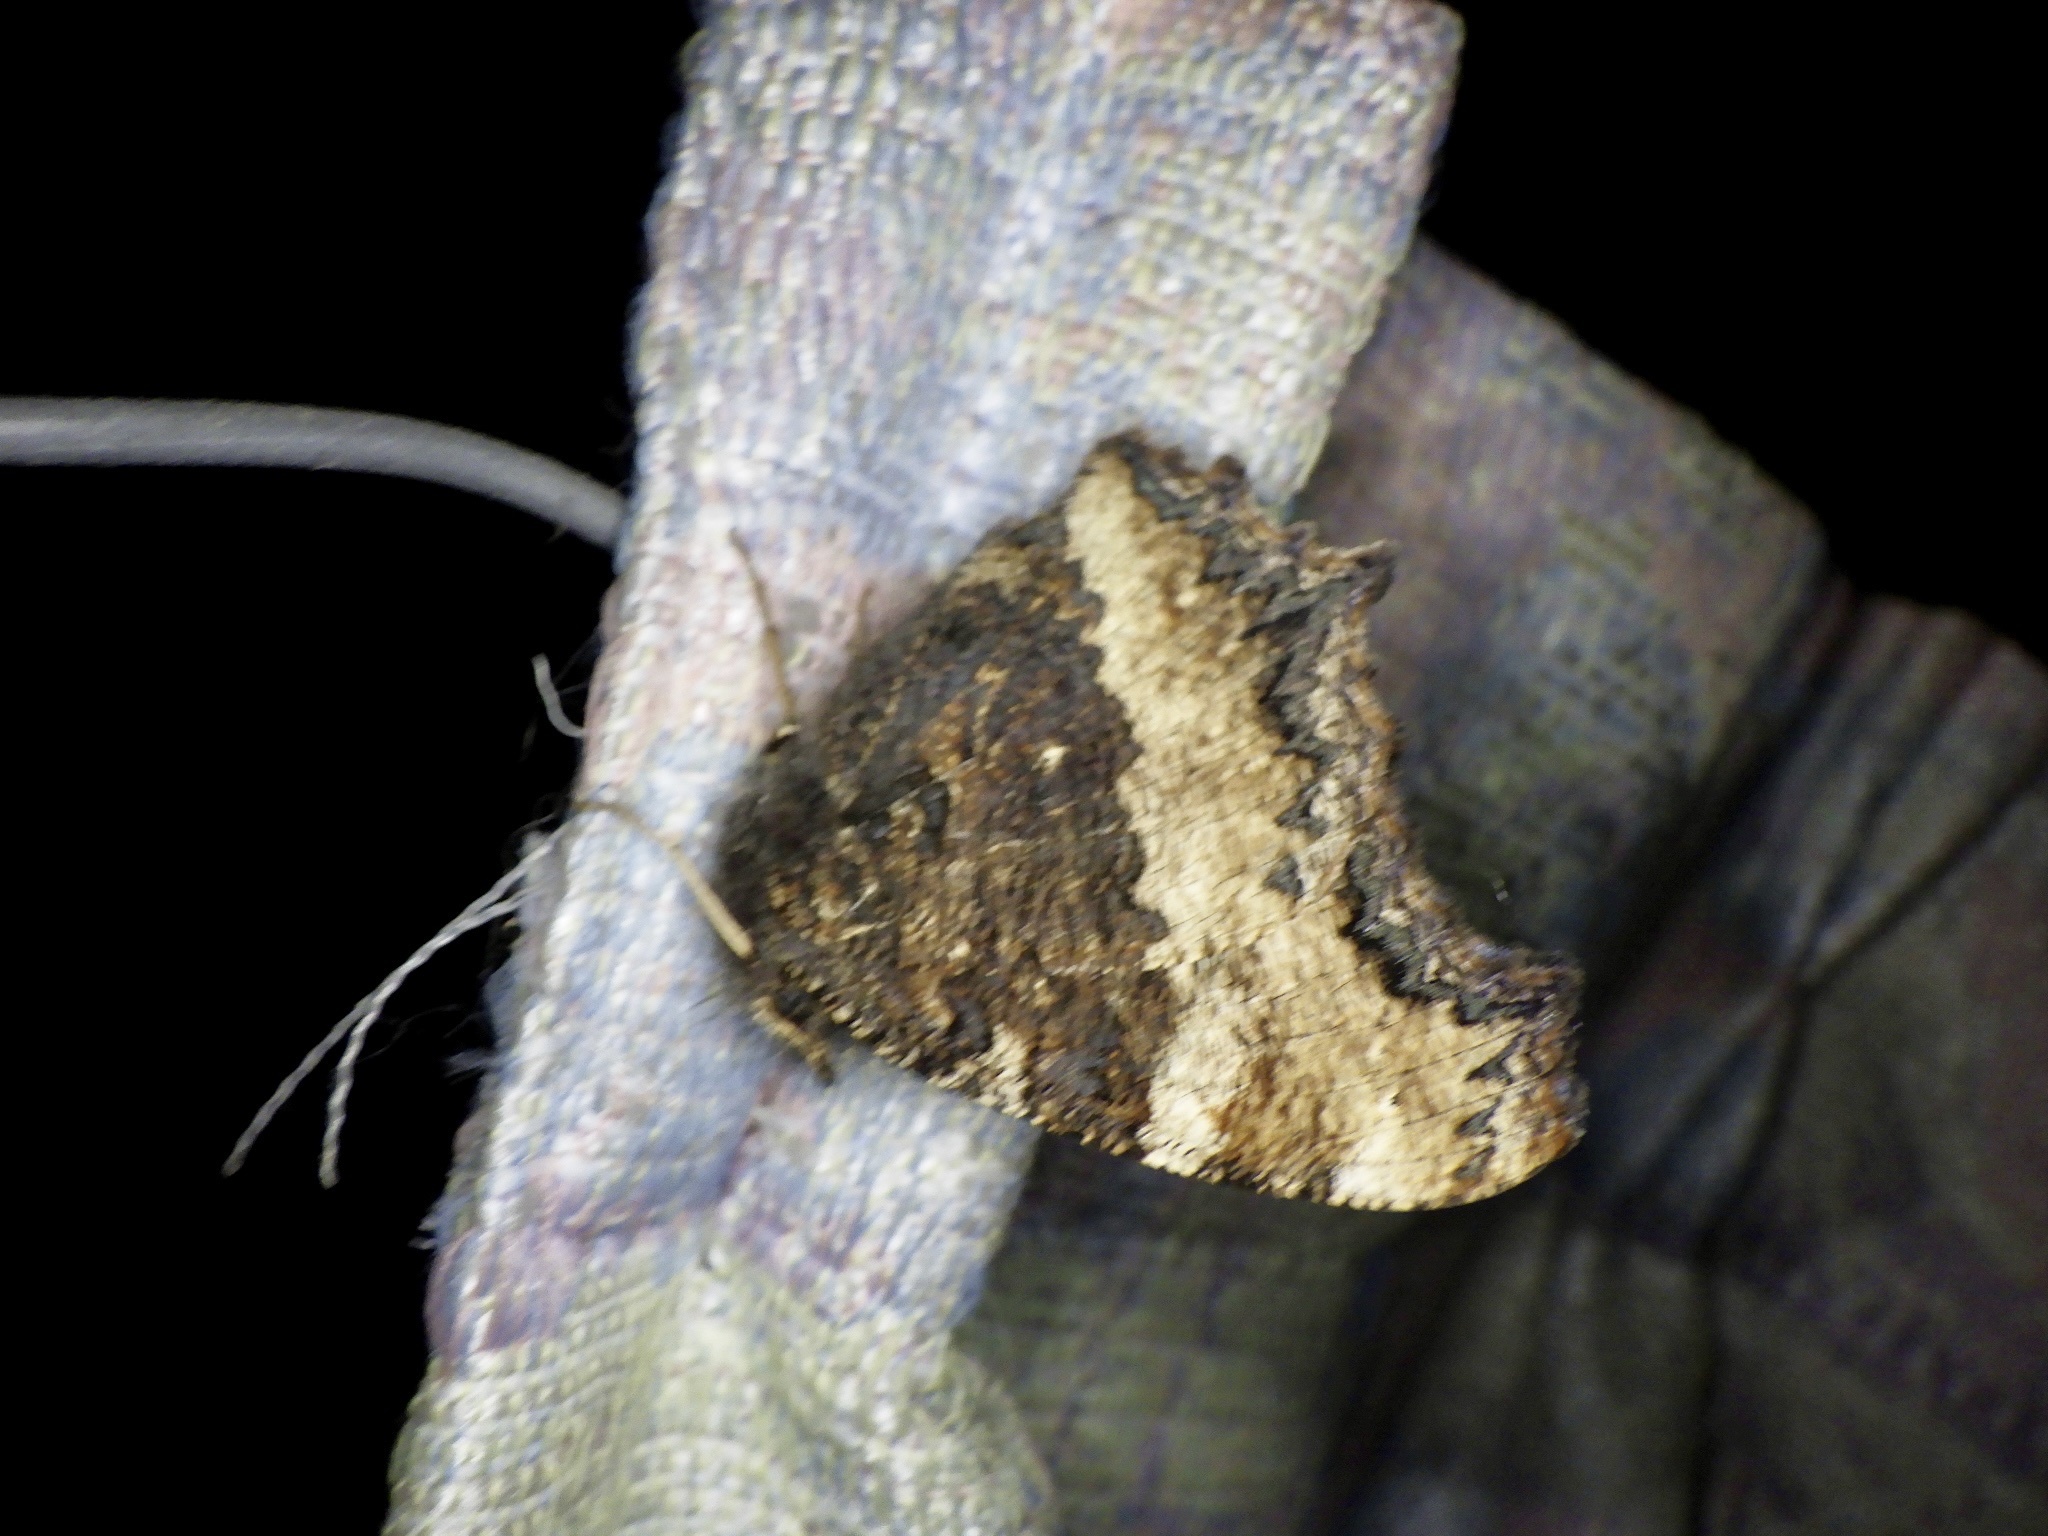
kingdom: Animalia
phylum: Arthropoda
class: Insecta
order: Lepidoptera
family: Nymphalidae
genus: Nymphalis
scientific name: Nymphalis xanthomelas
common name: Scarce tortoiseshell
